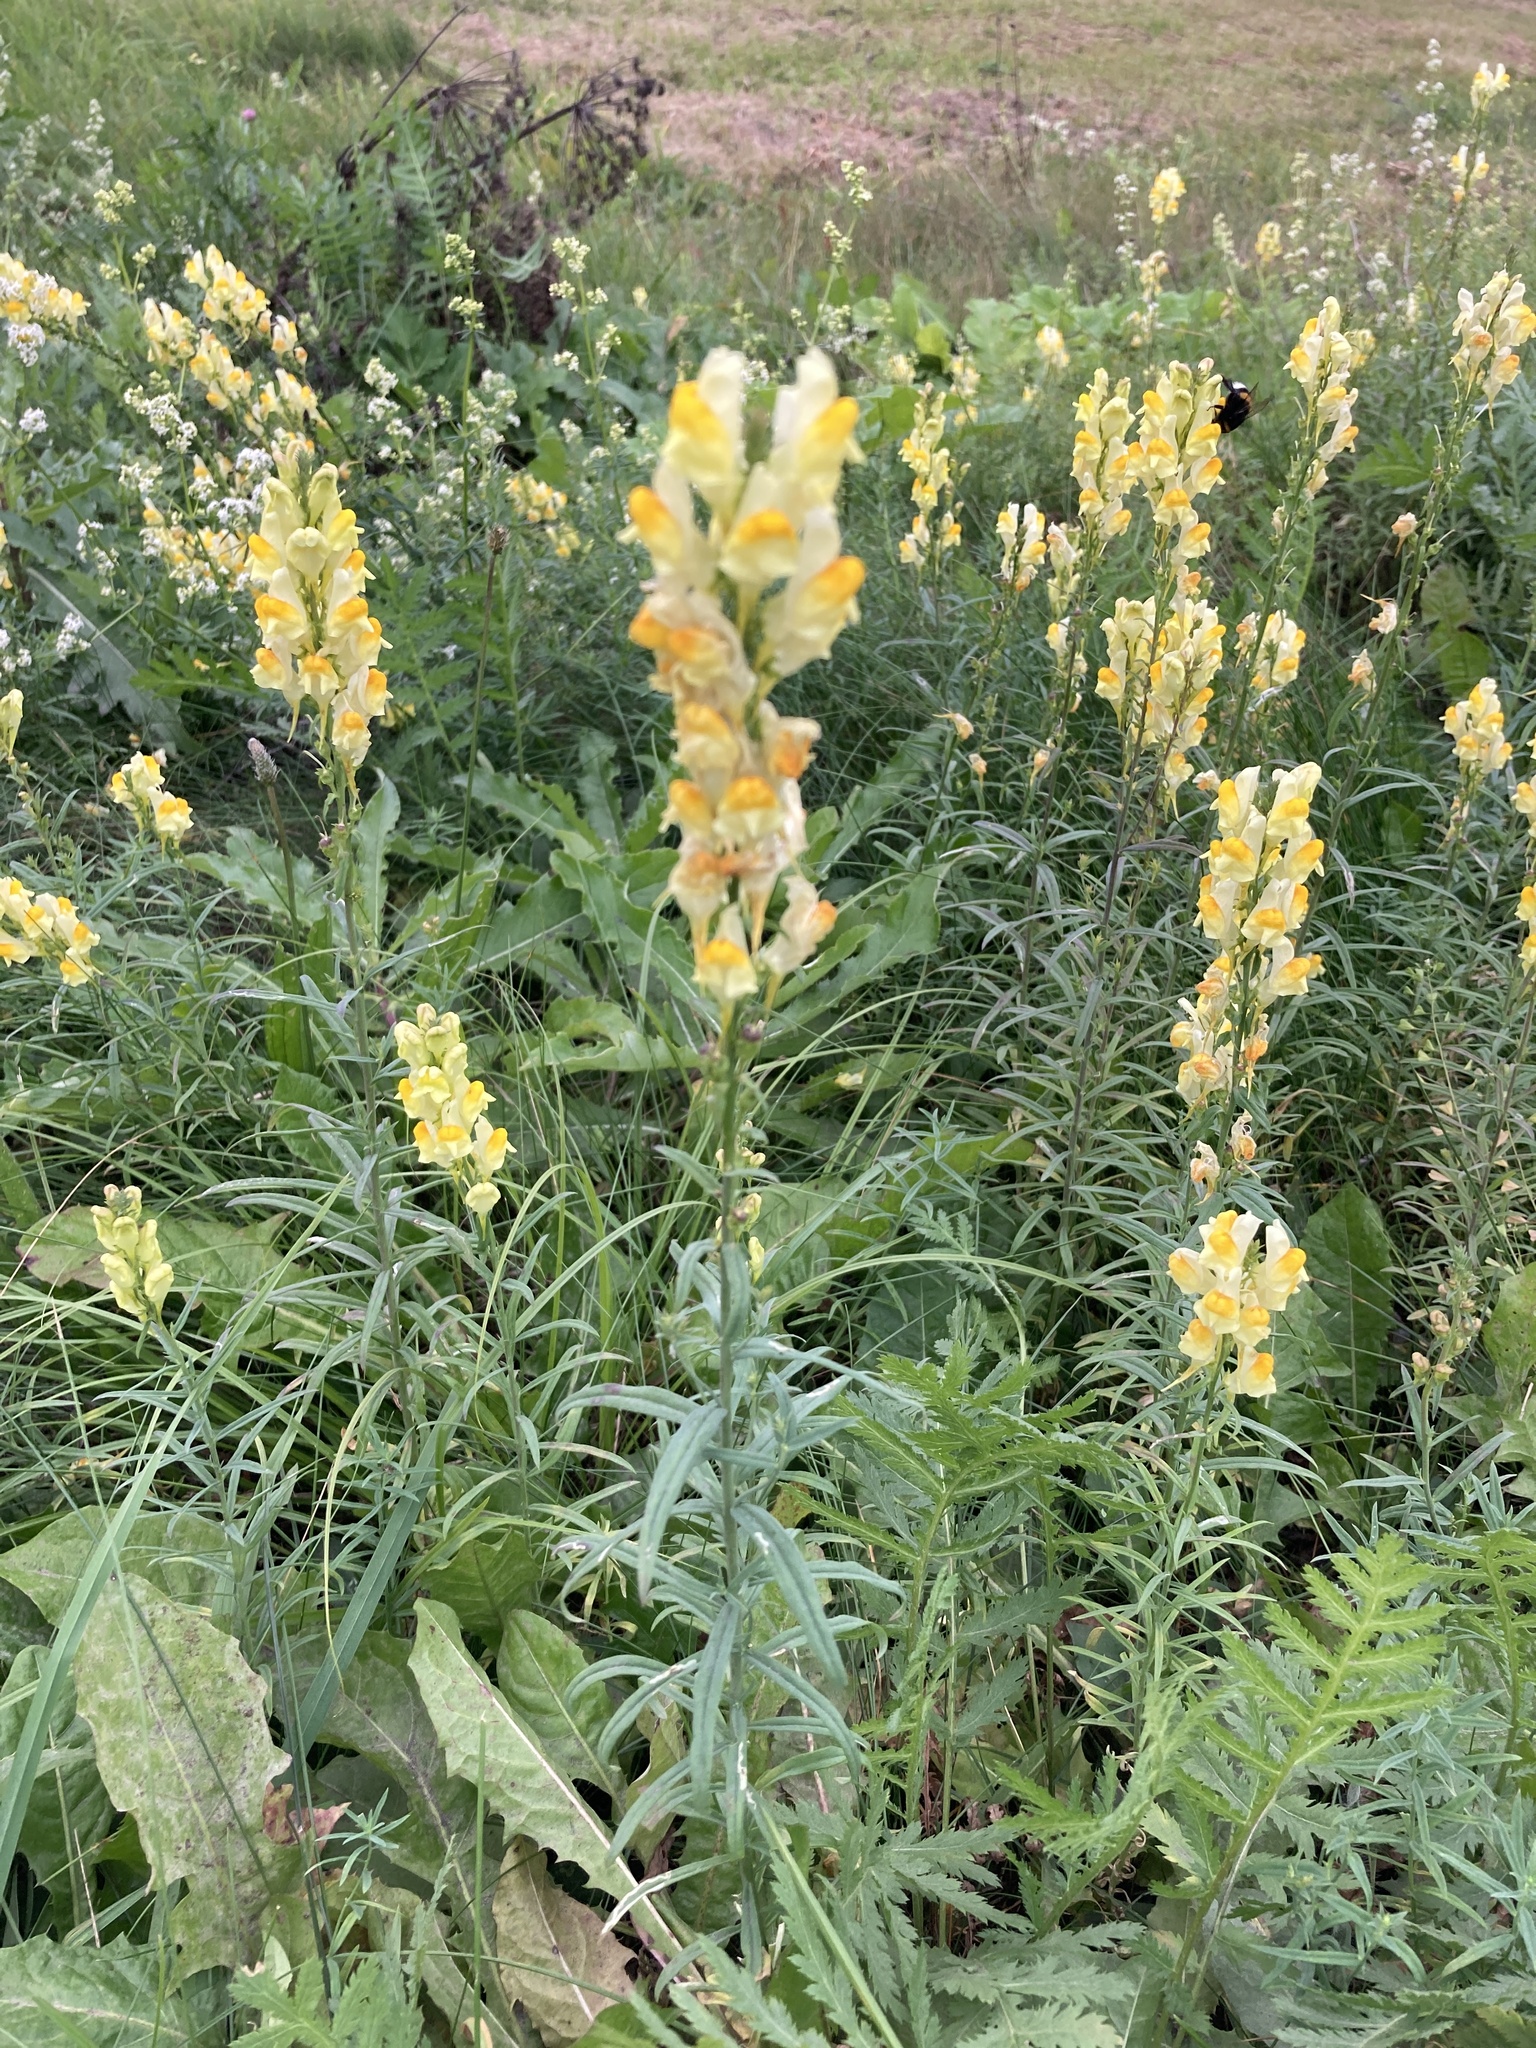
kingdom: Plantae
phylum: Tracheophyta
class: Magnoliopsida
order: Lamiales
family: Plantaginaceae
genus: Linaria
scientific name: Linaria vulgaris
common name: Butter and eggs
